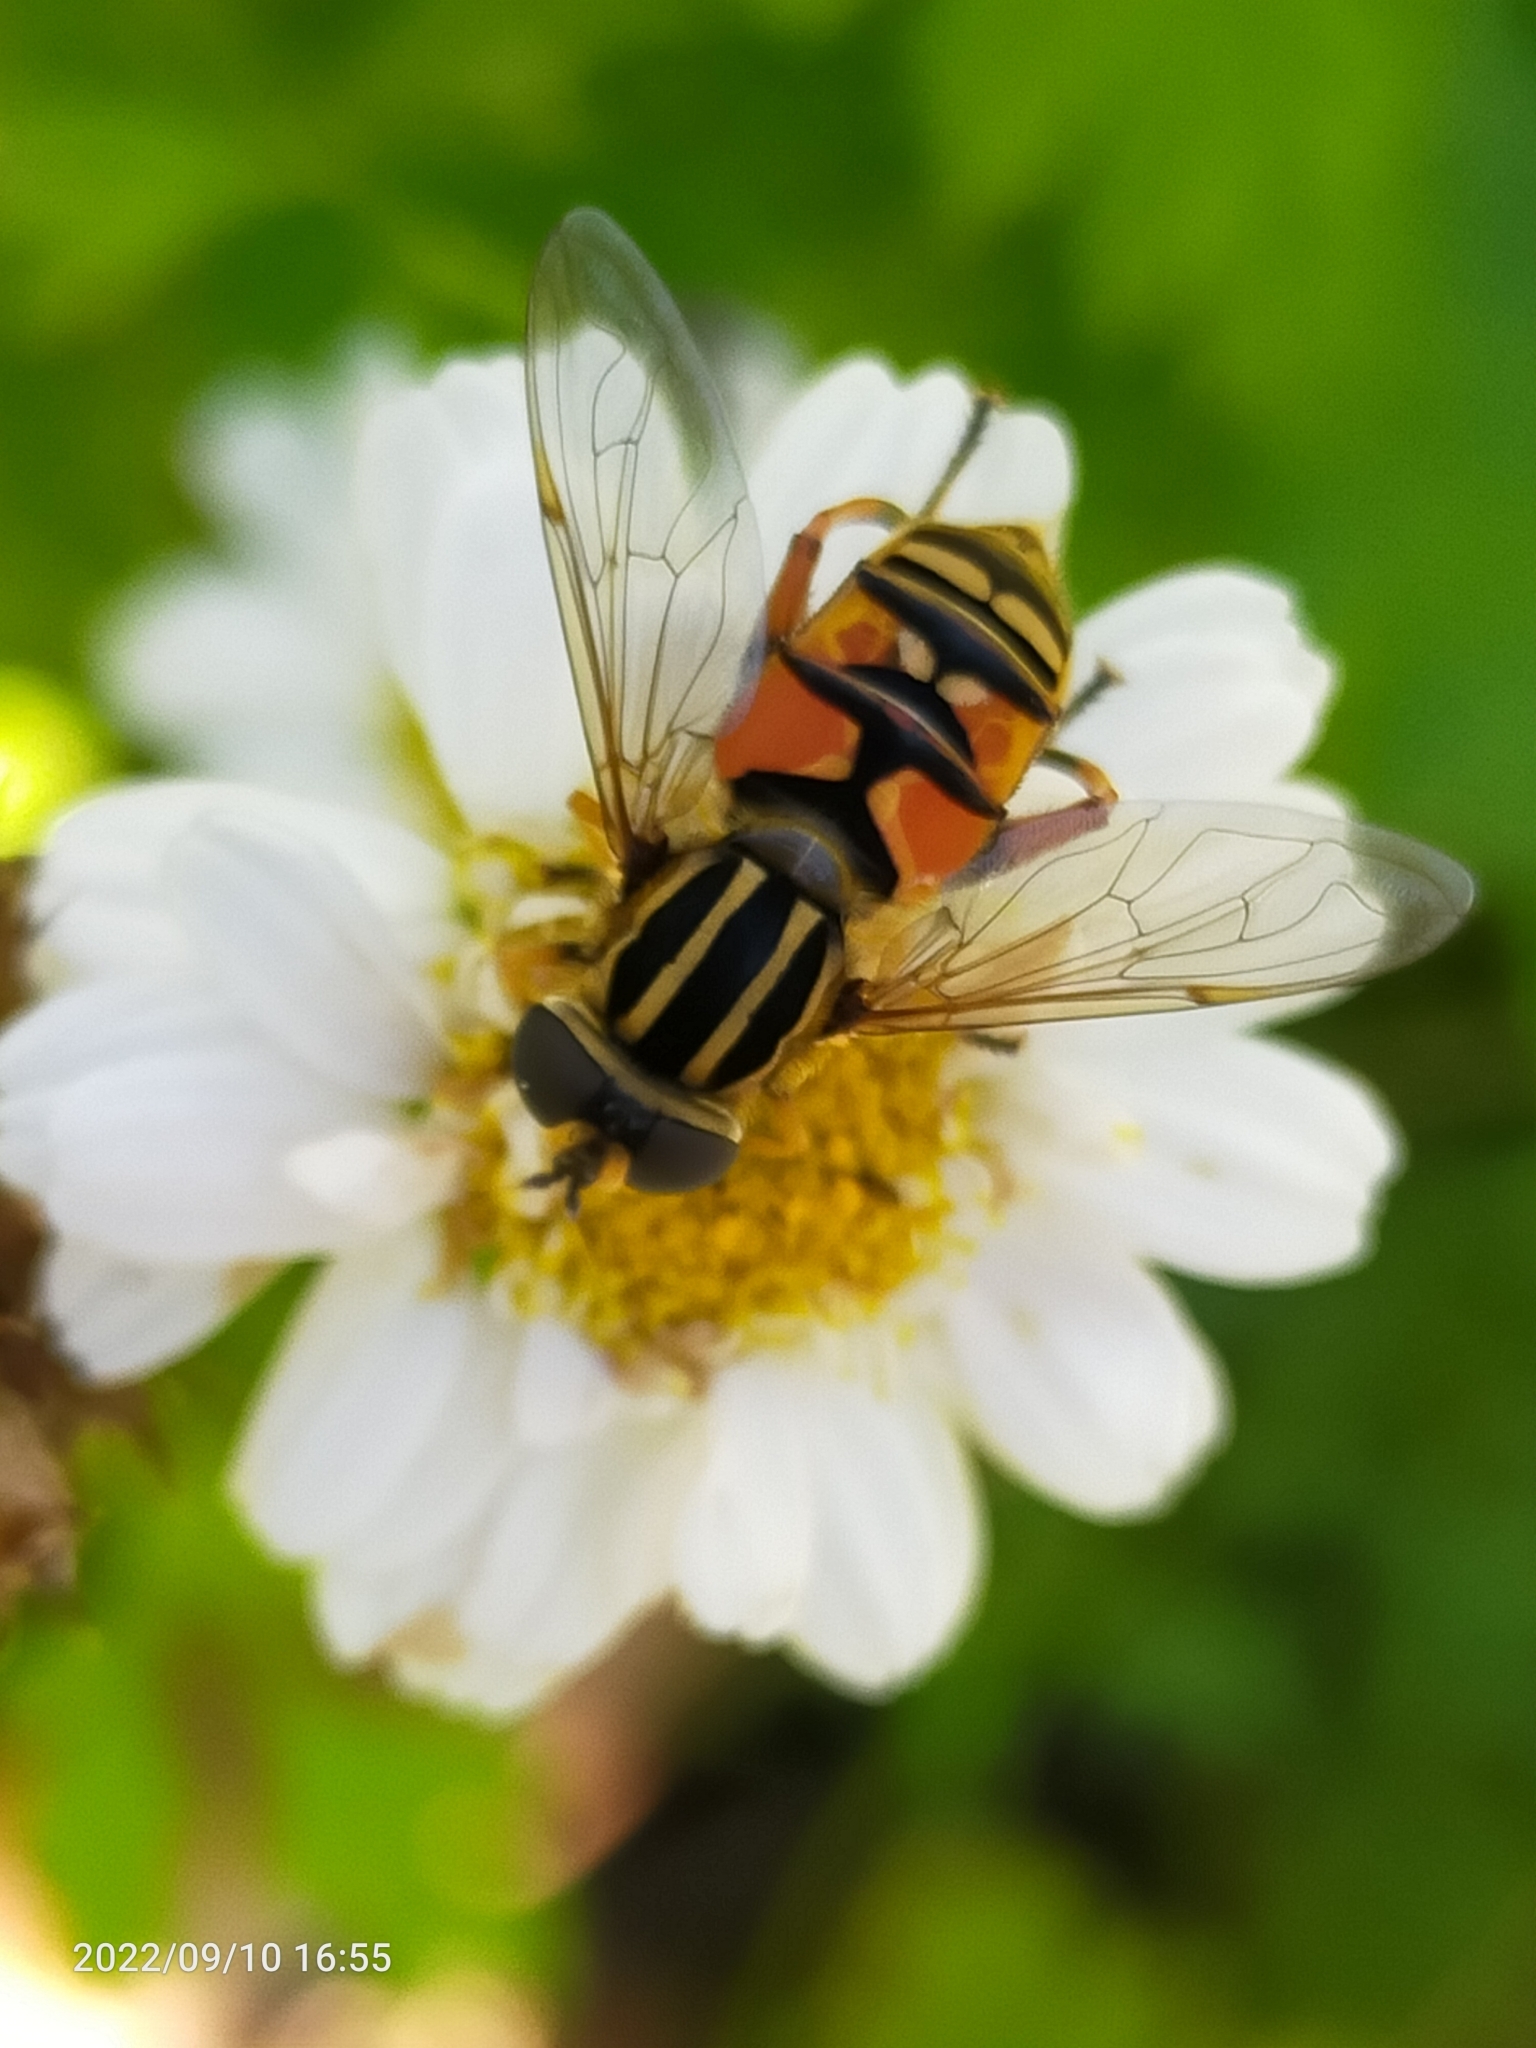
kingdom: Animalia
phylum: Arthropoda
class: Insecta
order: Diptera
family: Syrphidae
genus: Helophilus
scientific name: Helophilus pendulus
